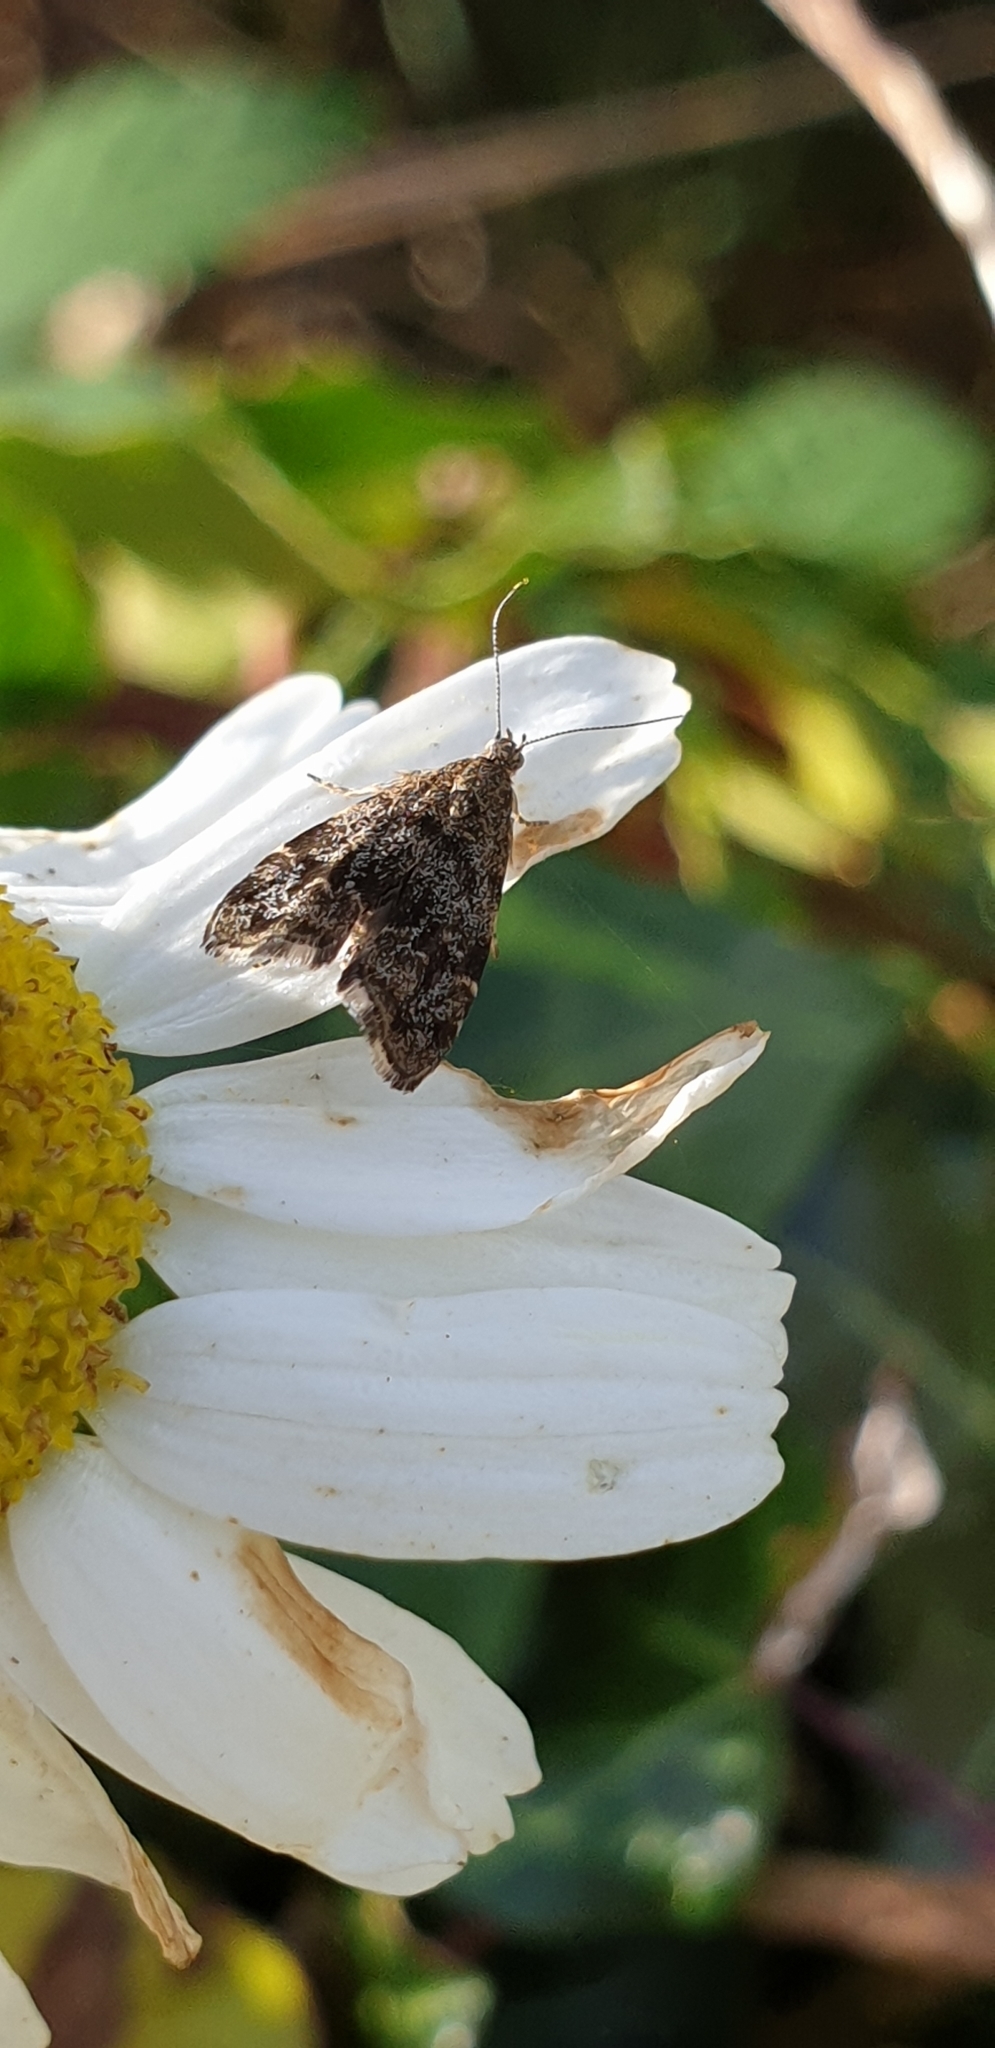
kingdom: Animalia
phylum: Arthropoda
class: Insecta
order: Lepidoptera
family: Choreutidae
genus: Anthophila
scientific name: Anthophila fabriciana
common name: Nettle-tap
